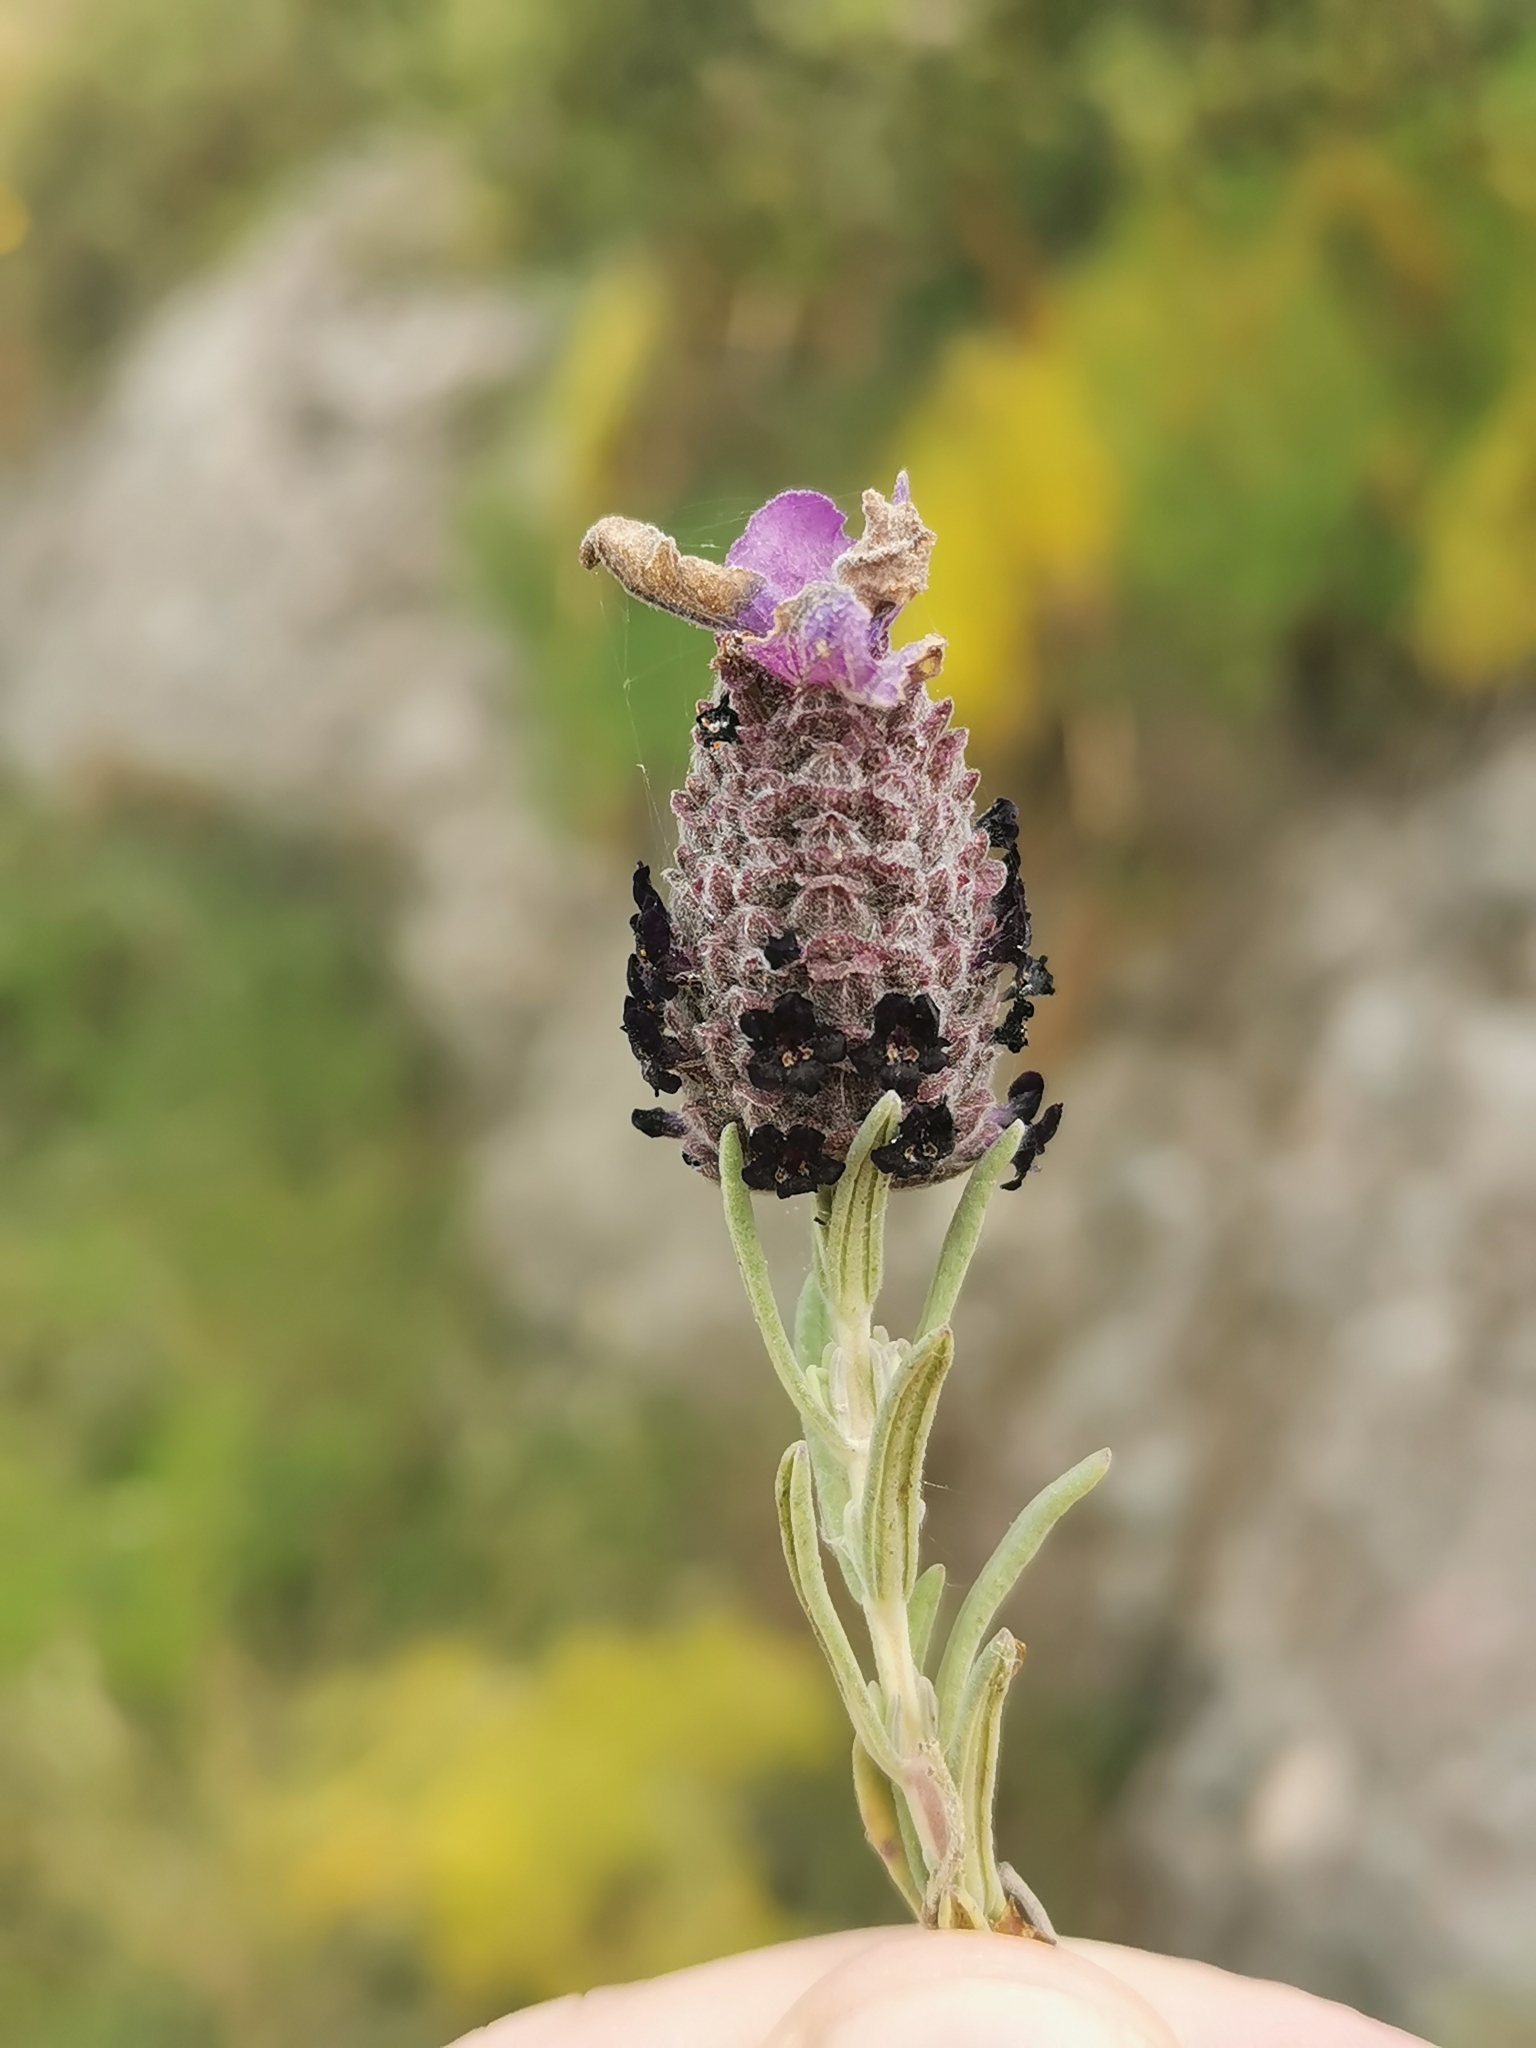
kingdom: Plantae
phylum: Tracheophyta
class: Magnoliopsida
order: Lamiales
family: Lamiaceae
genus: Lavandula
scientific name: Lavandula stoechas
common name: French lavender
